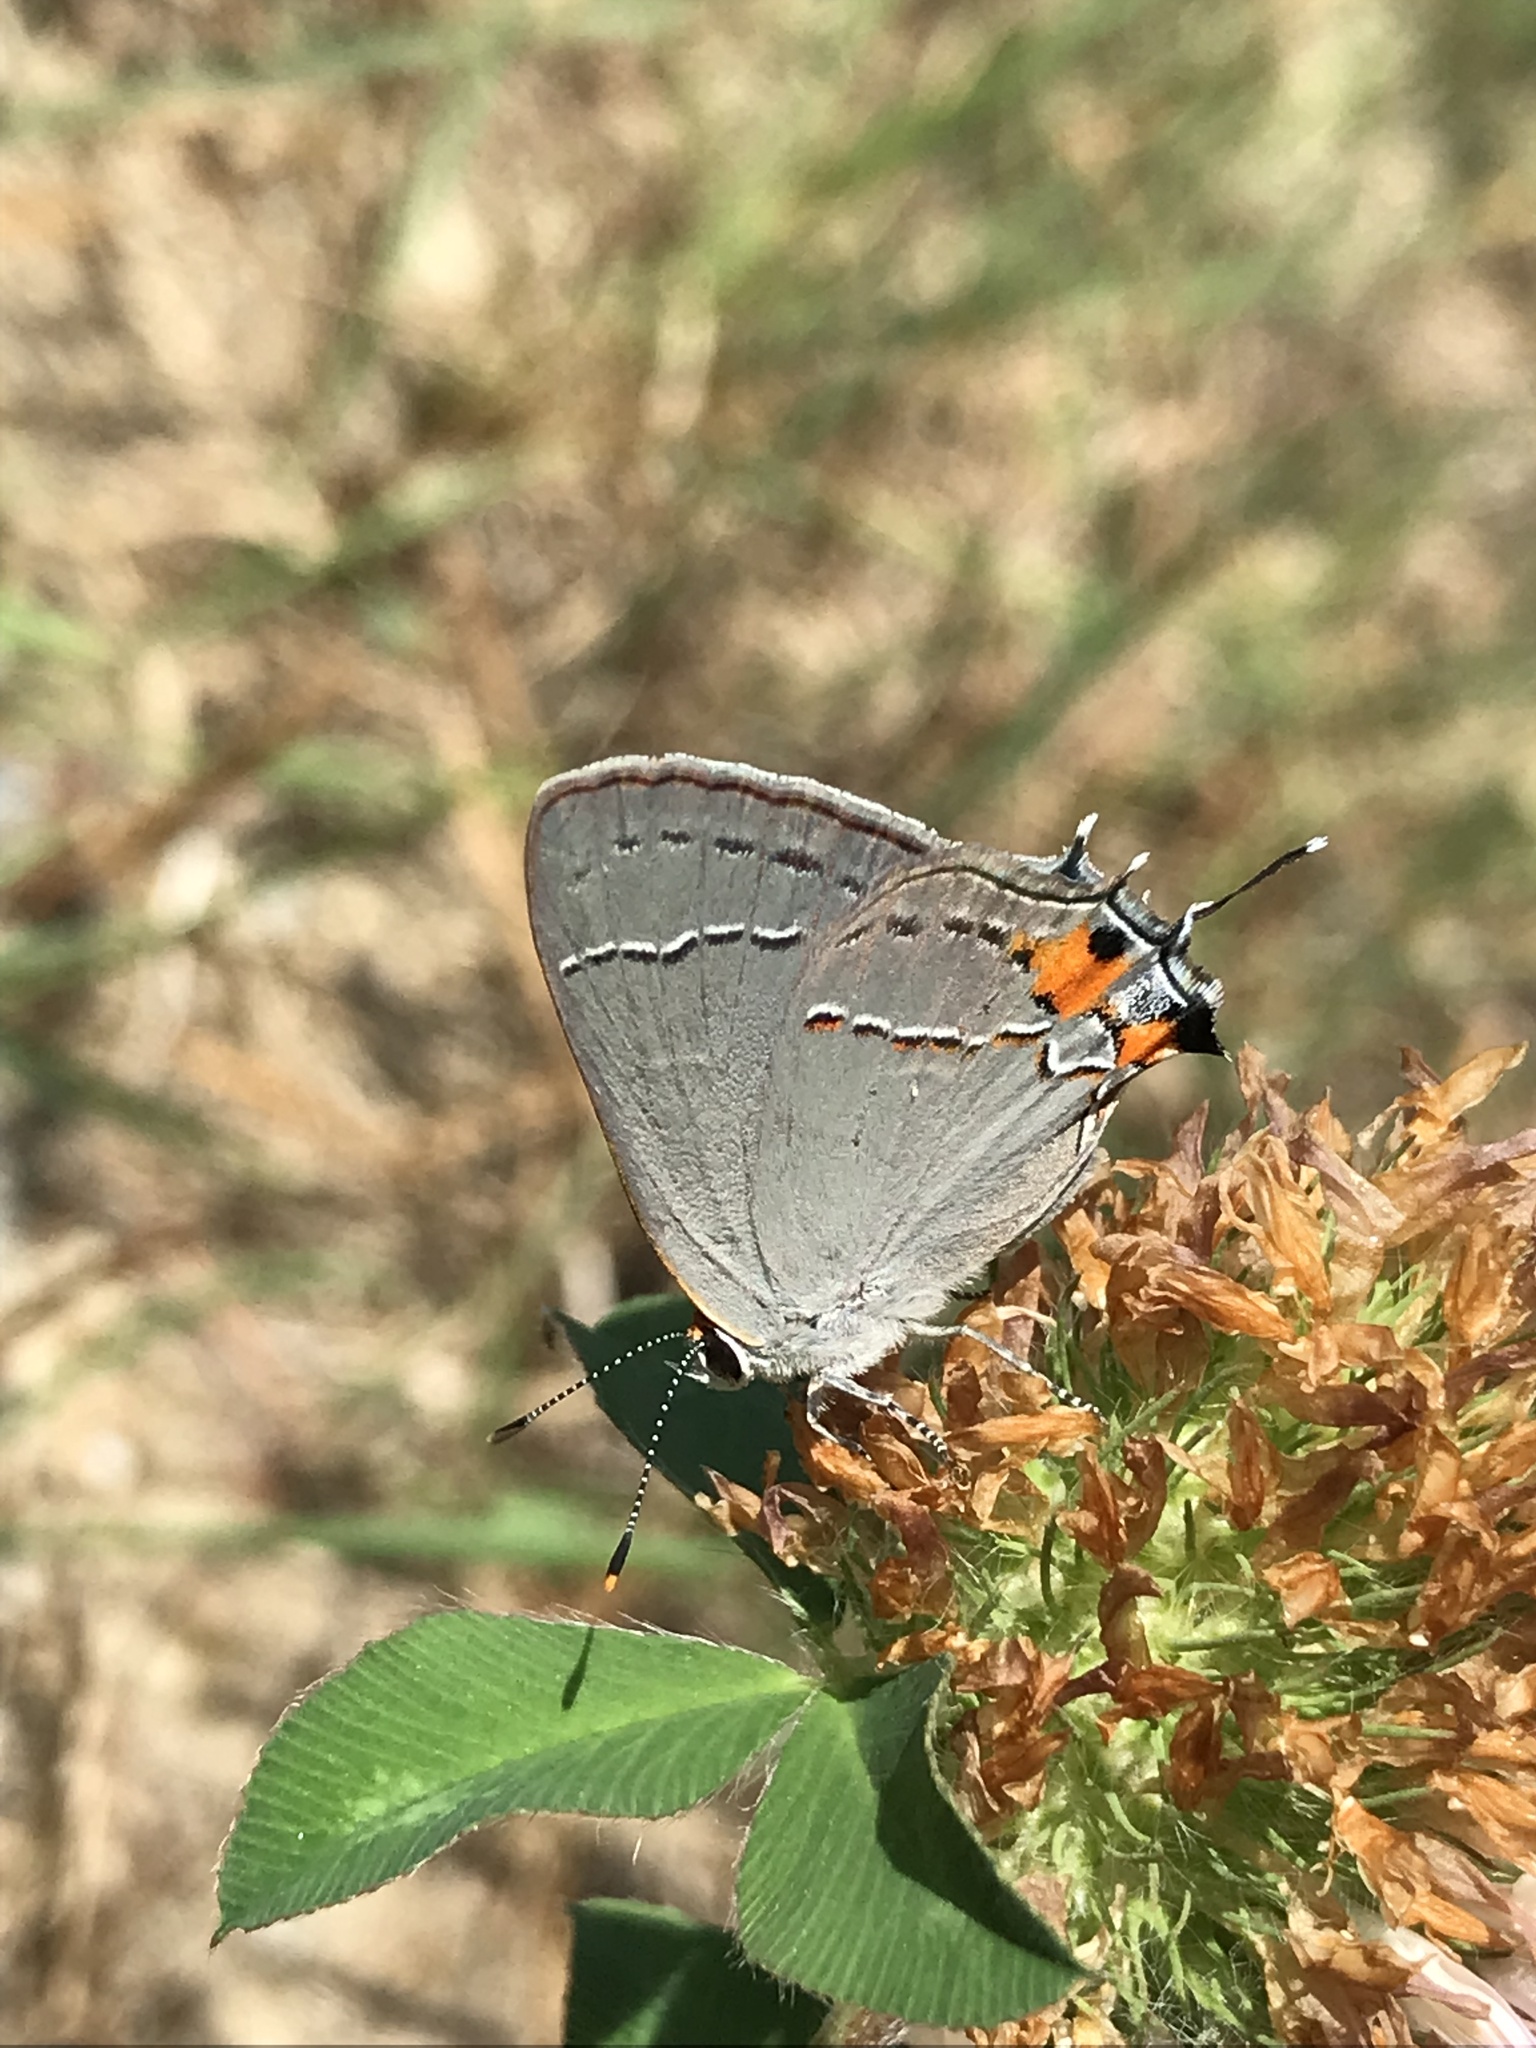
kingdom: Animalia
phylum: Arthropoda
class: Insecta
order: Lepidoptera
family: Lycaenidae
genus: Strymon
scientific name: Strymon melinus
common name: Gray hairstreak
